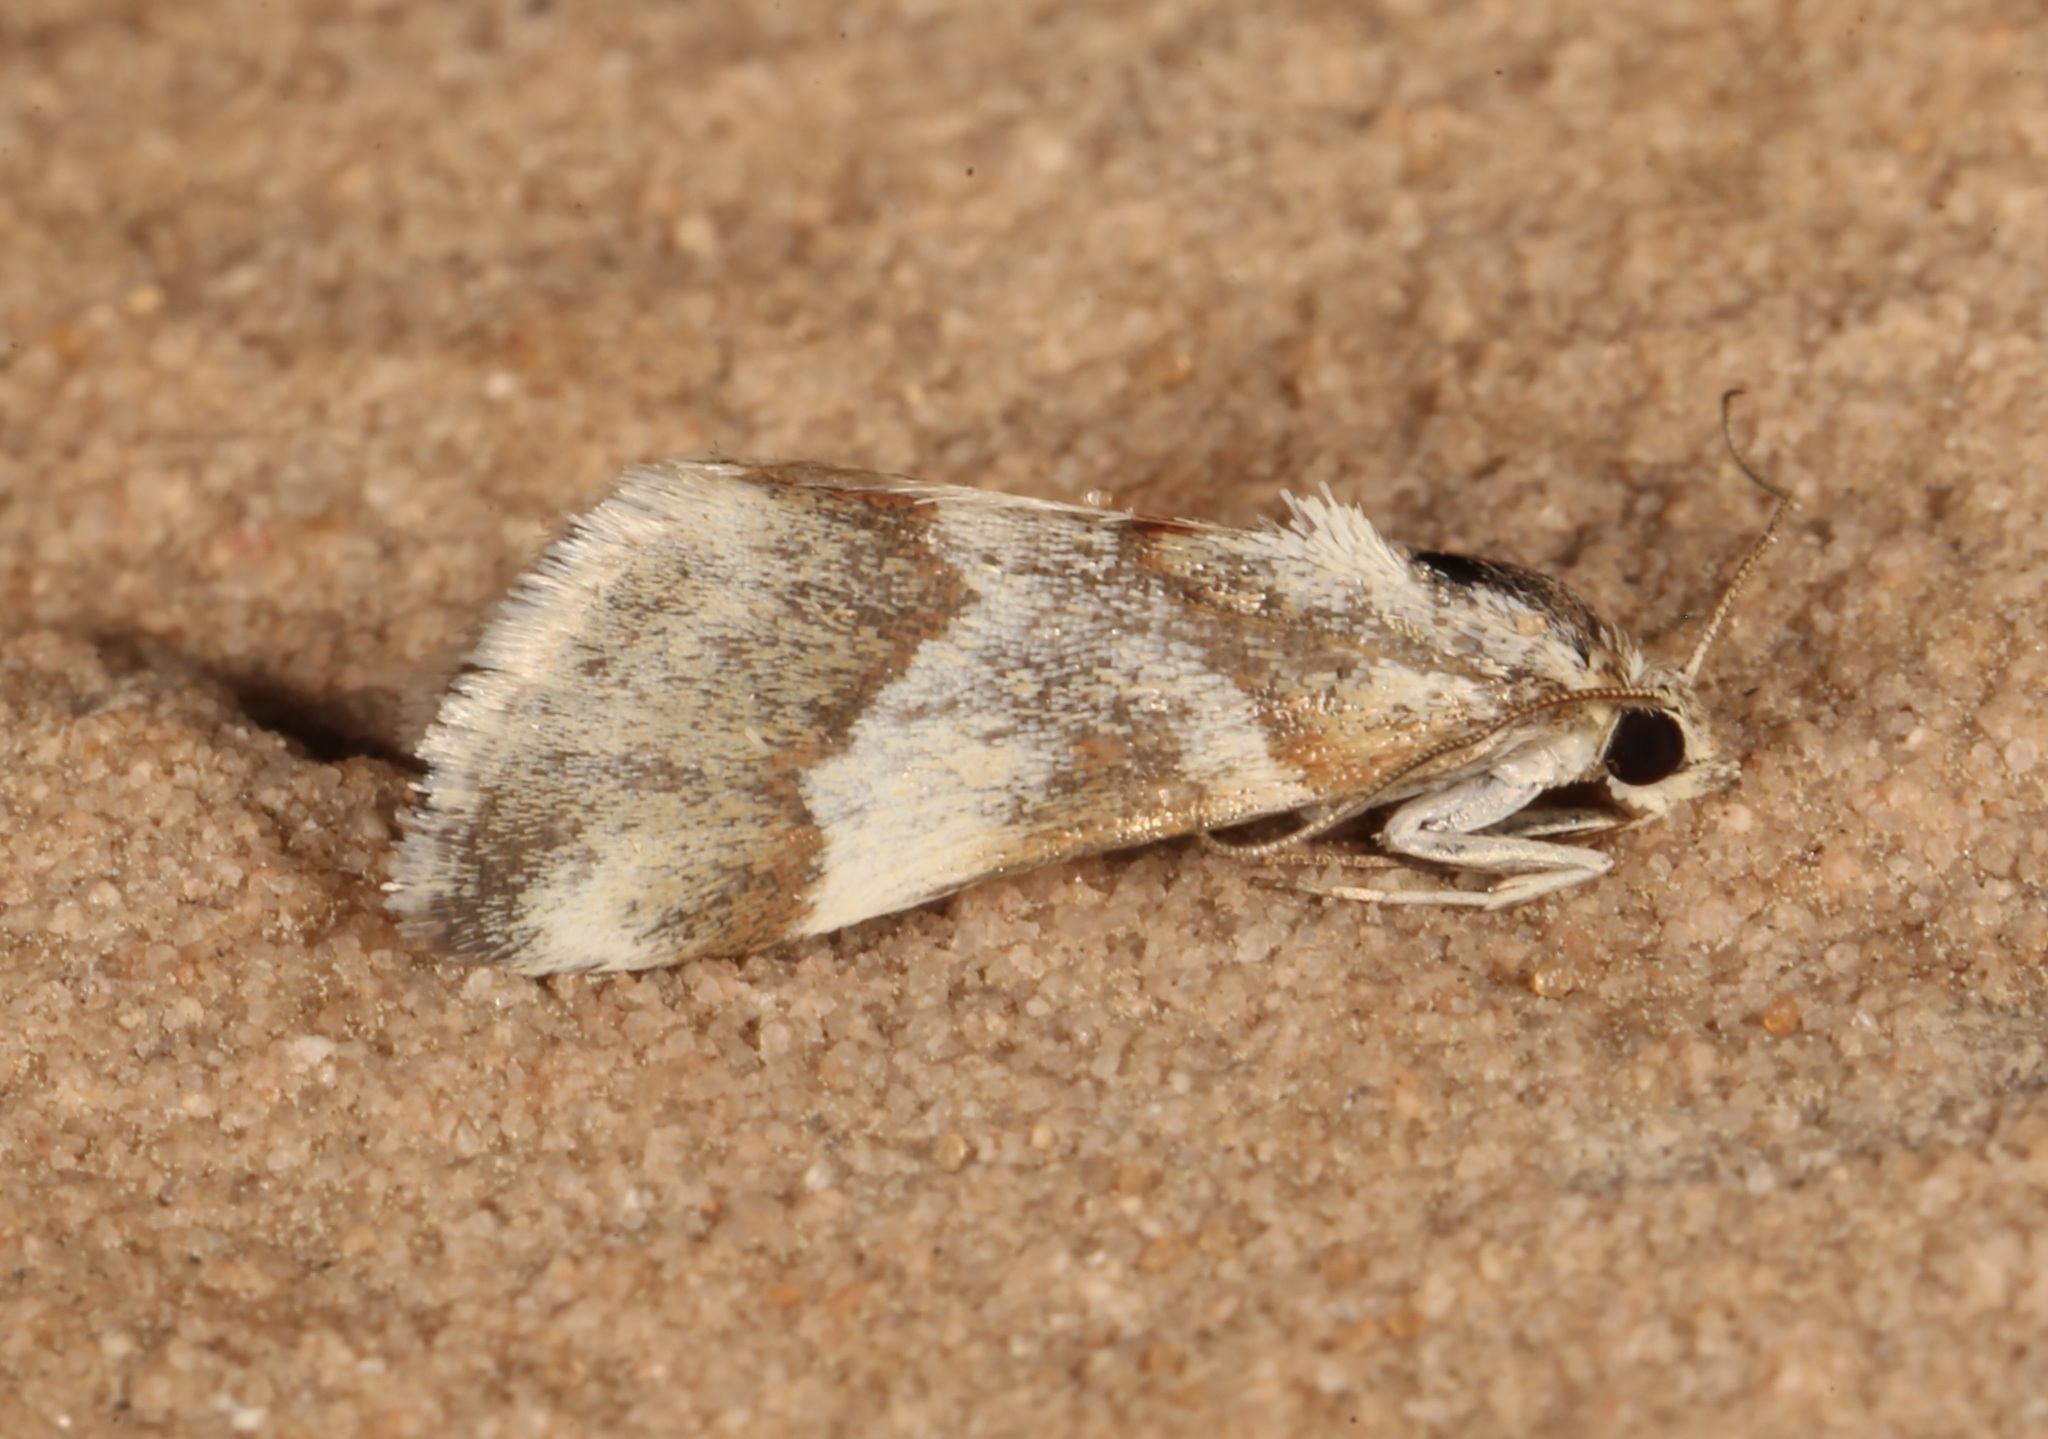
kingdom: Animalia
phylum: Arthropoda
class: Insecta
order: Lepidoptera
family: Crambidae
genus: Noctuelia
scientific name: Noctuelia Mimoschinia rufofascialis
